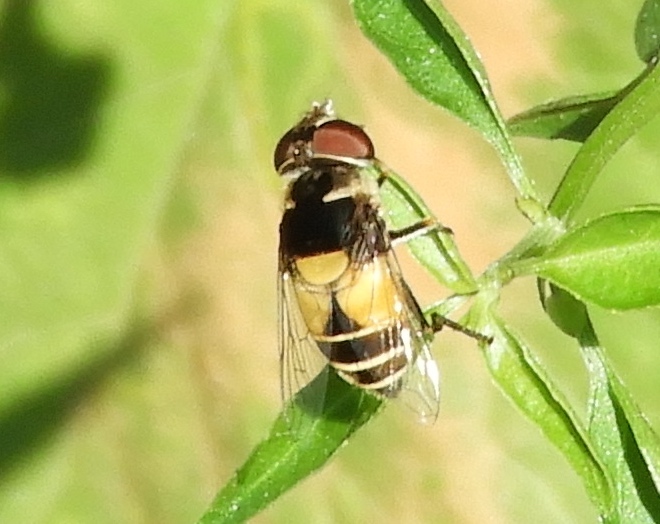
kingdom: Animalia
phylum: Arthropoda
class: Insecta
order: Diptera
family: Syrphidae
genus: Palpada
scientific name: Palpada pusilla
